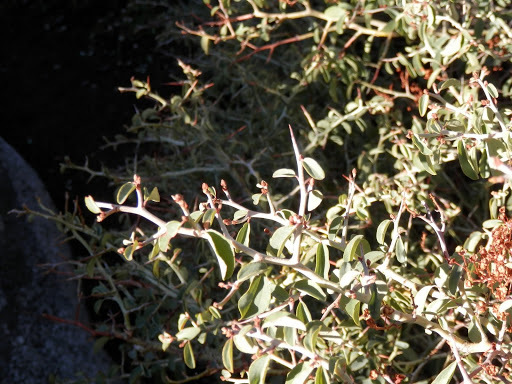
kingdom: Plantae
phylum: Tracheophyta
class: Magnoliopsida
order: Rosales
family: Rhamnaceae
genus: Ceanothus
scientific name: Ceanothus cordulatus
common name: Mountain whitethorn
